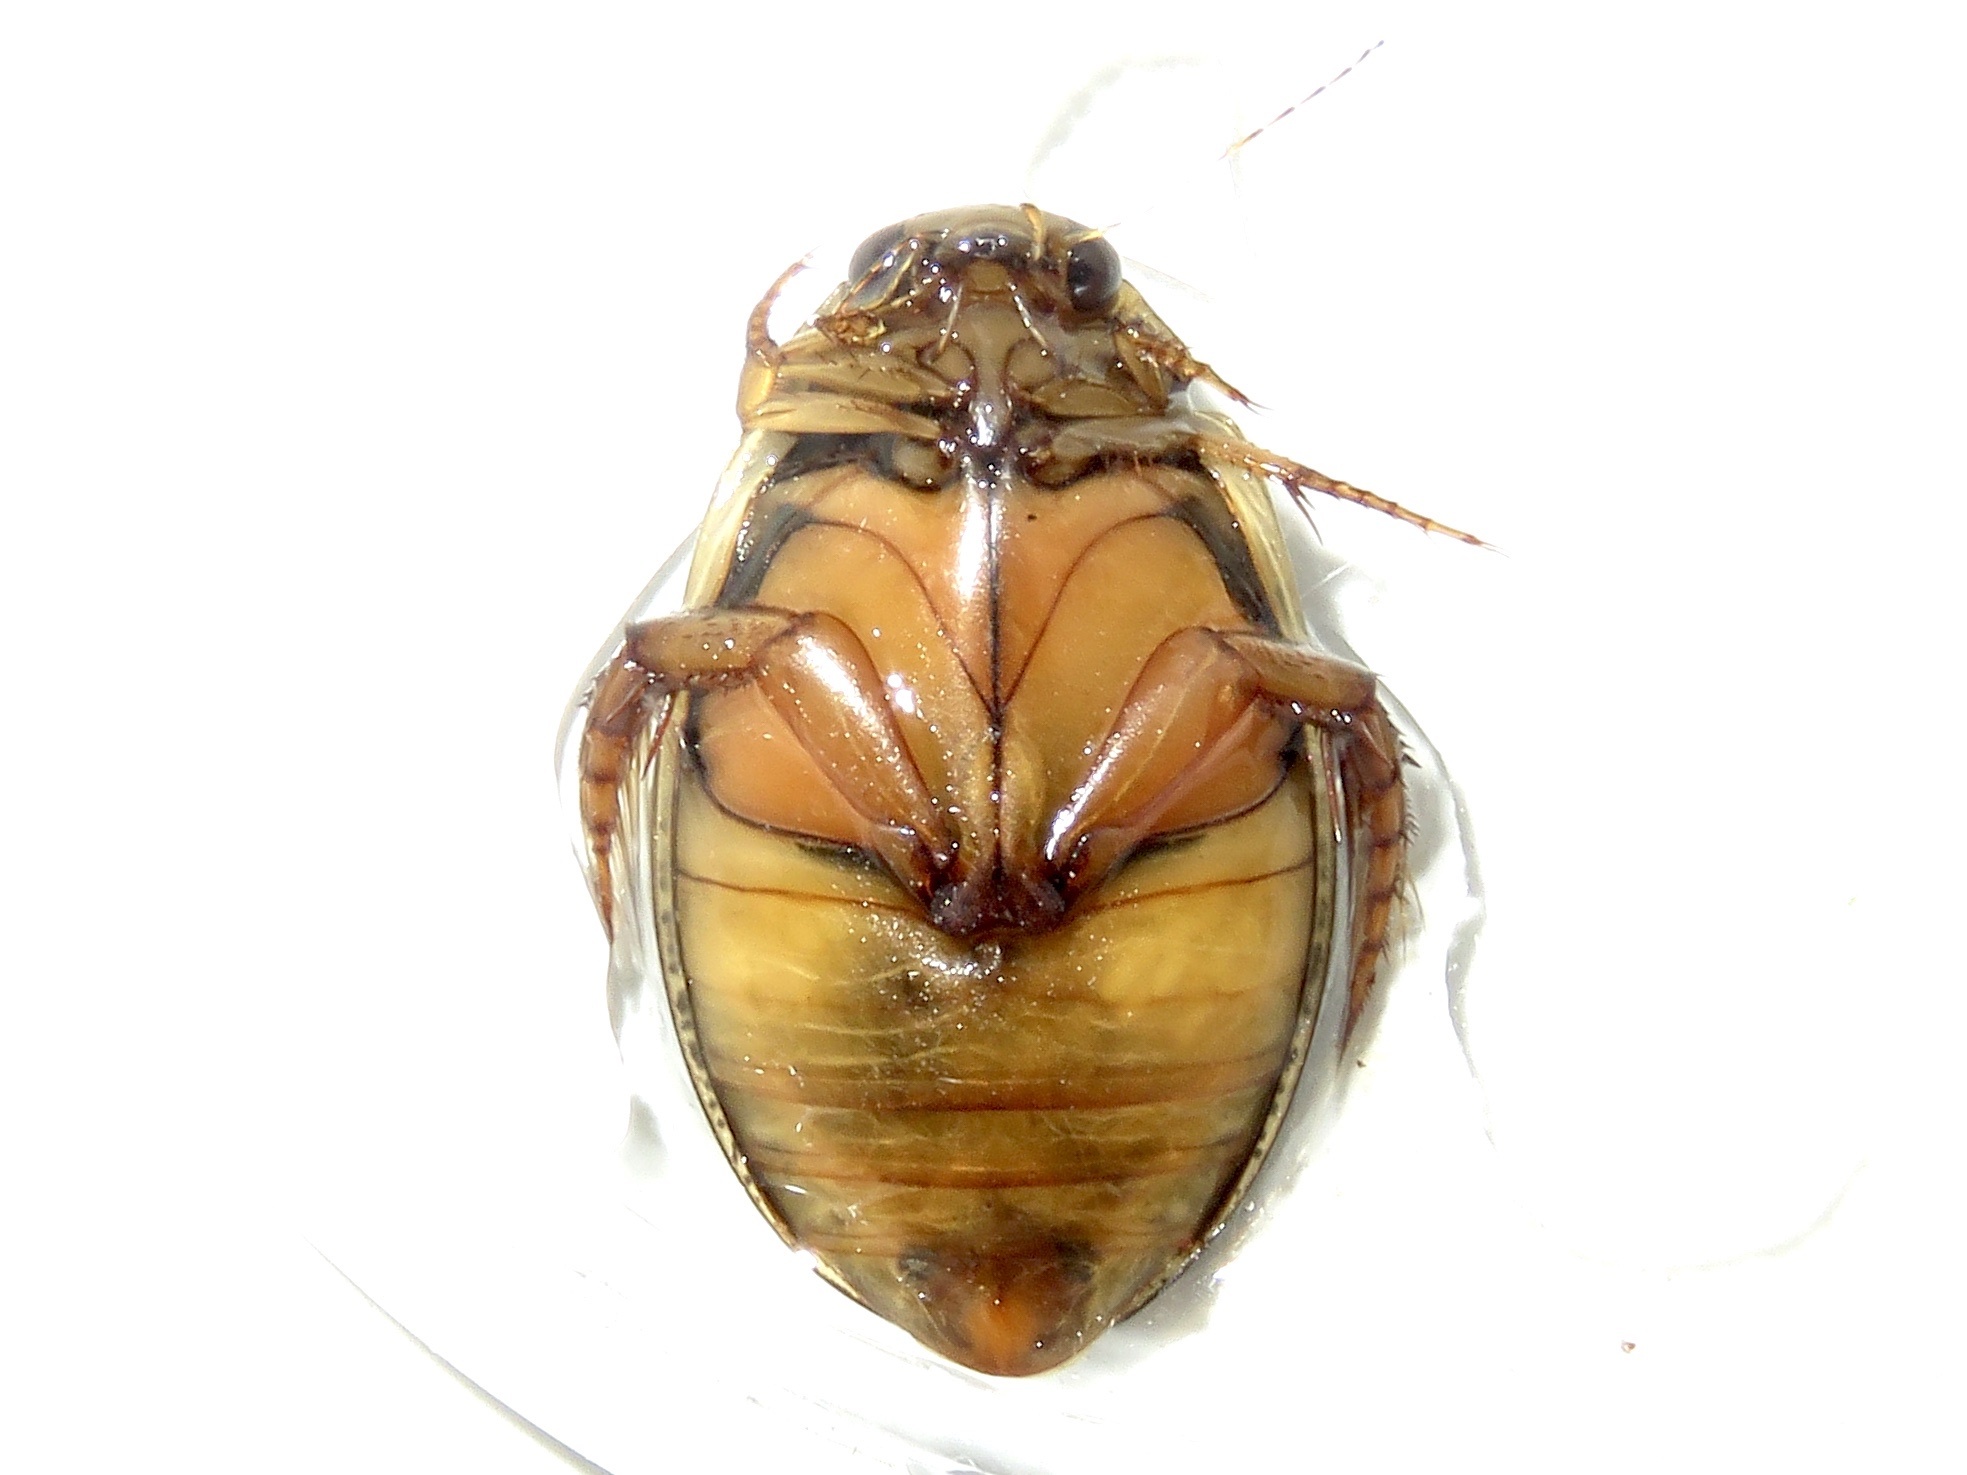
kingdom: Animalia
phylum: Arthropoda
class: Insecta
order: Coleoptera
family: Dytiscidae
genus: Acilius
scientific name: Acilius sylvanus
